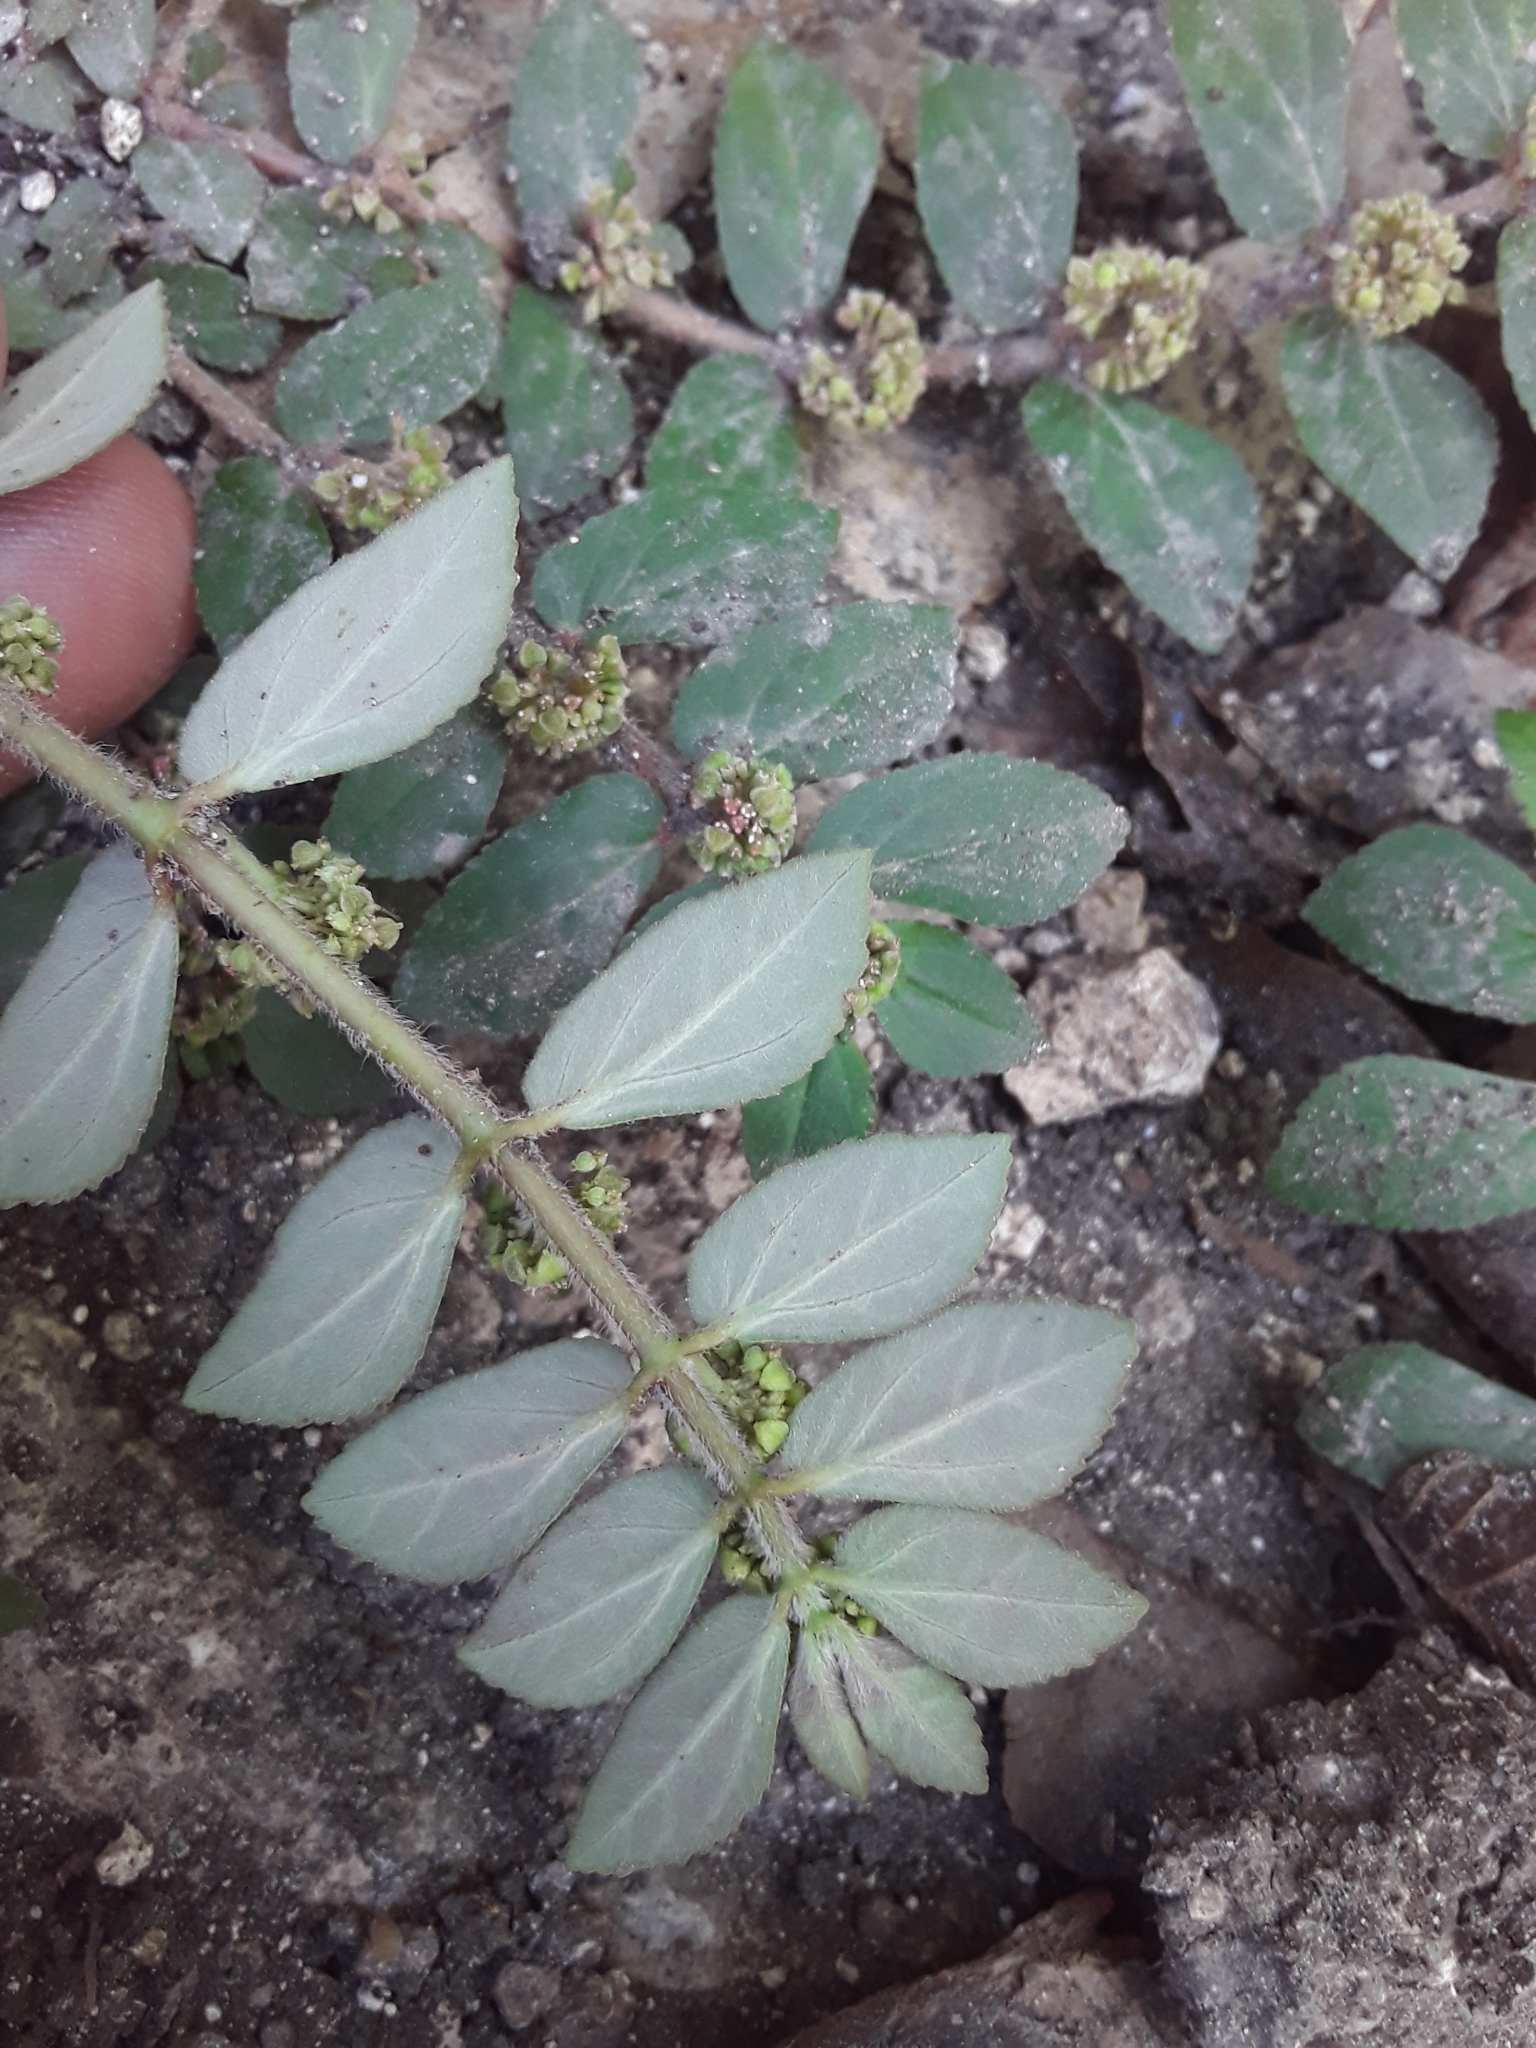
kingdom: Plantae
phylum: Tracheophyta
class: Magnoliopsida
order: Malpighiales
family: Euphorbiaceae
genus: Euphorbia
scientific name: Euphorbia hirta
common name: Pillpod sandmat
